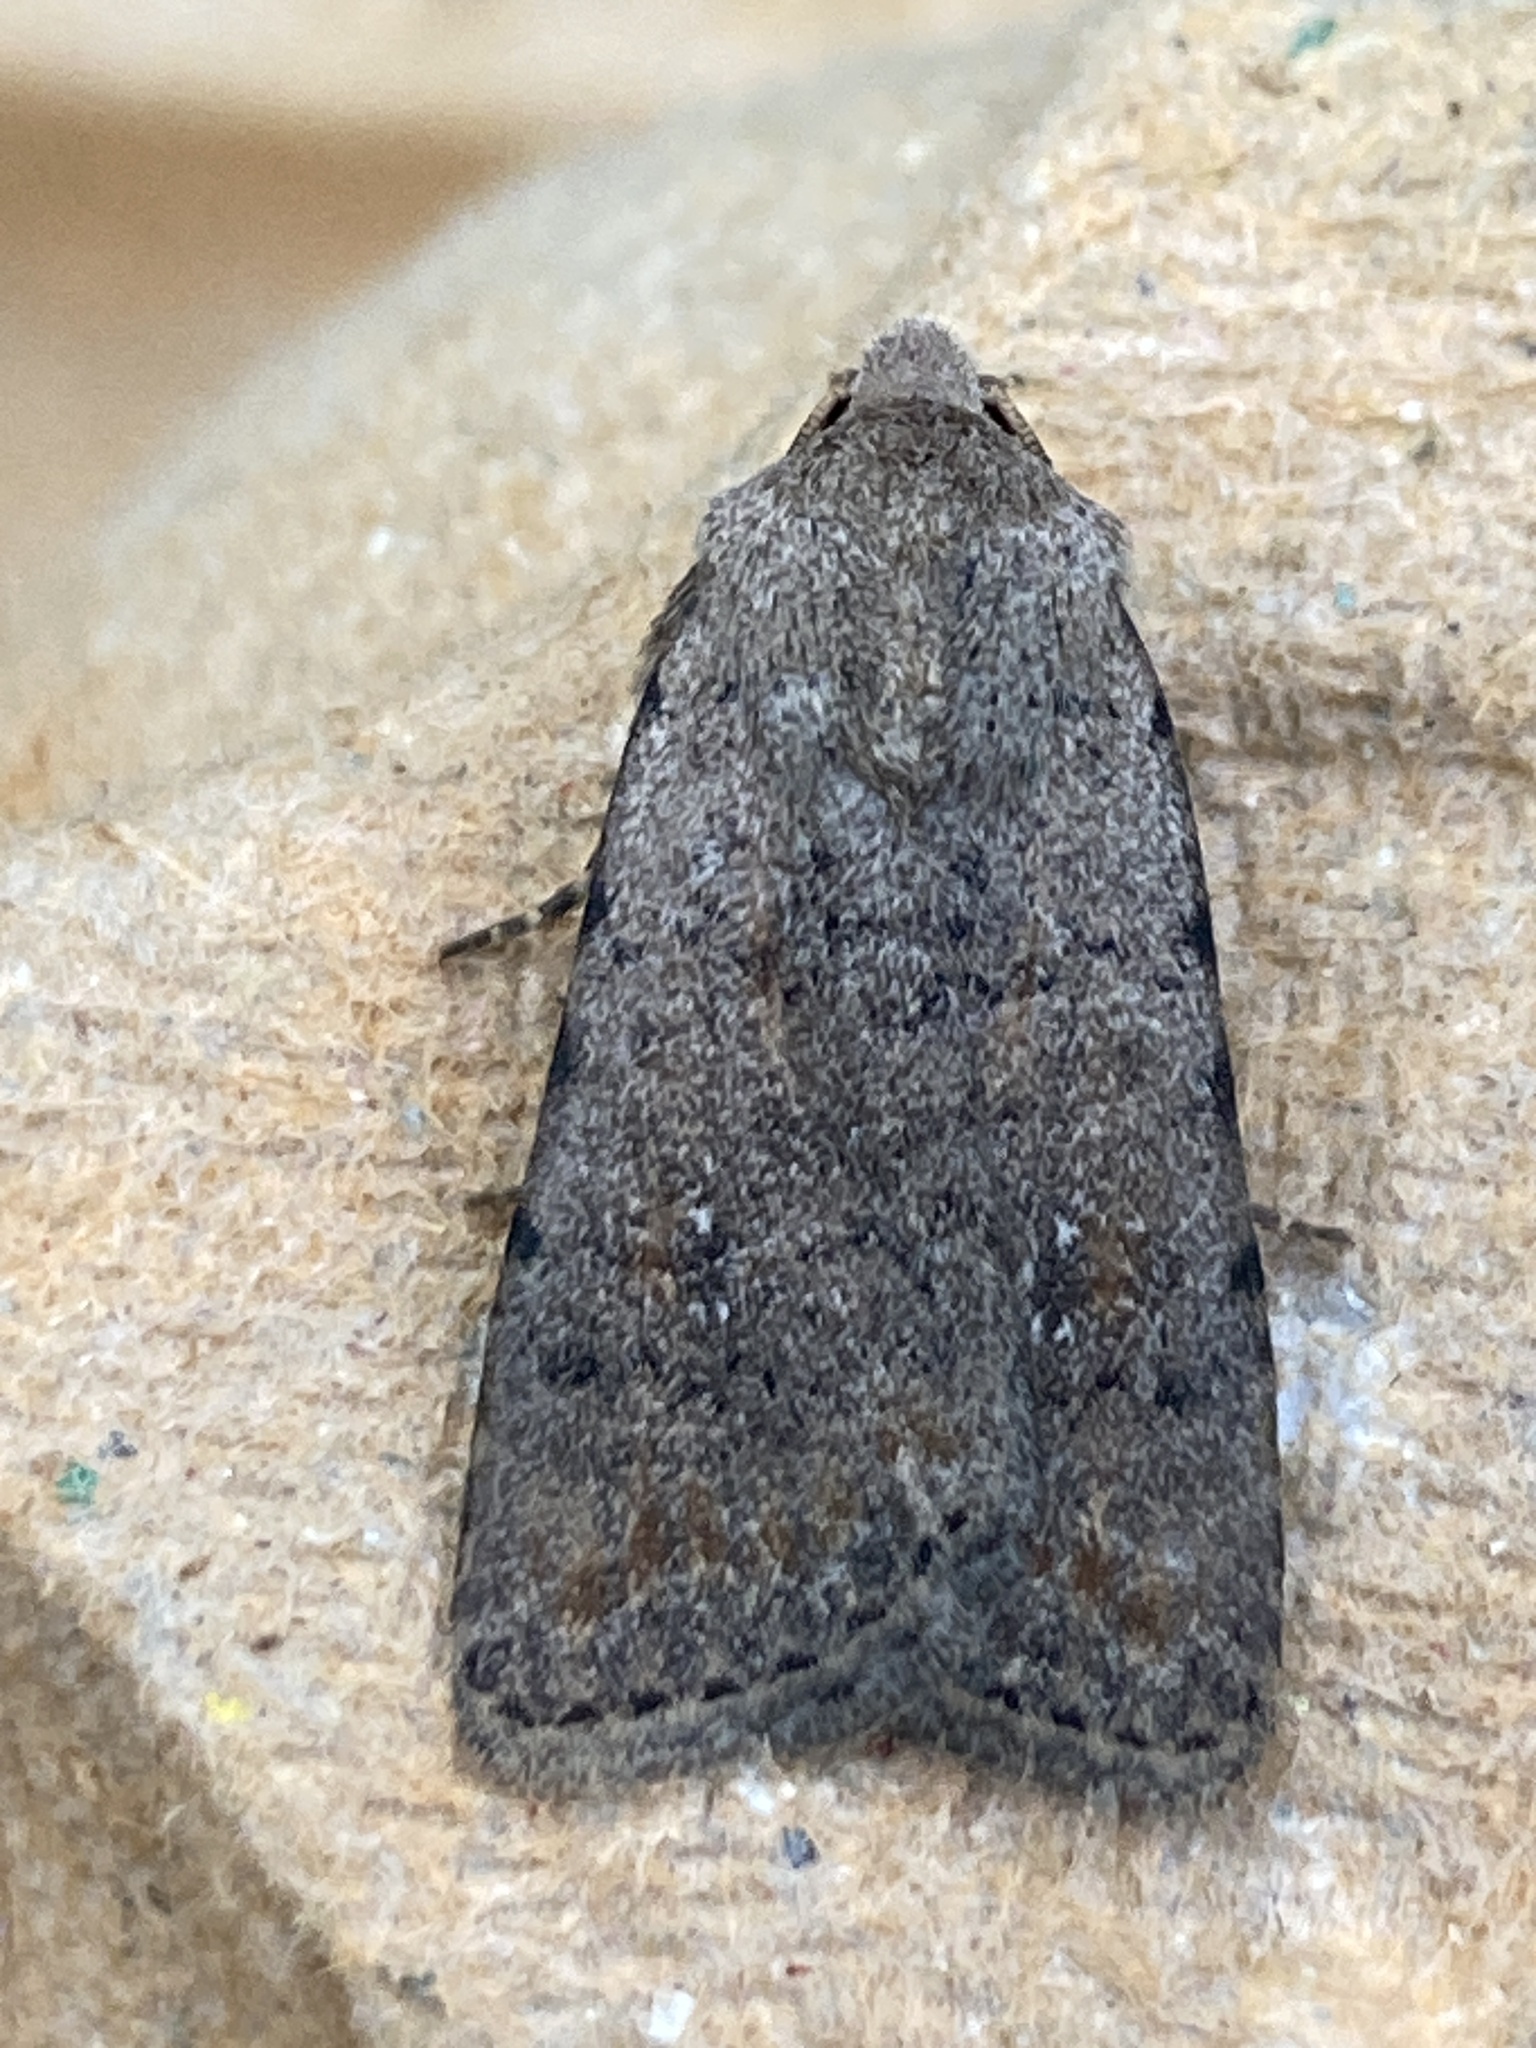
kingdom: Animalia
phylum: Arthropoda
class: Insecta
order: Lepidoptera
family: Noctuidae
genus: Caradrina
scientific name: Caradrina clavipalpis
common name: Pale mottled willow
